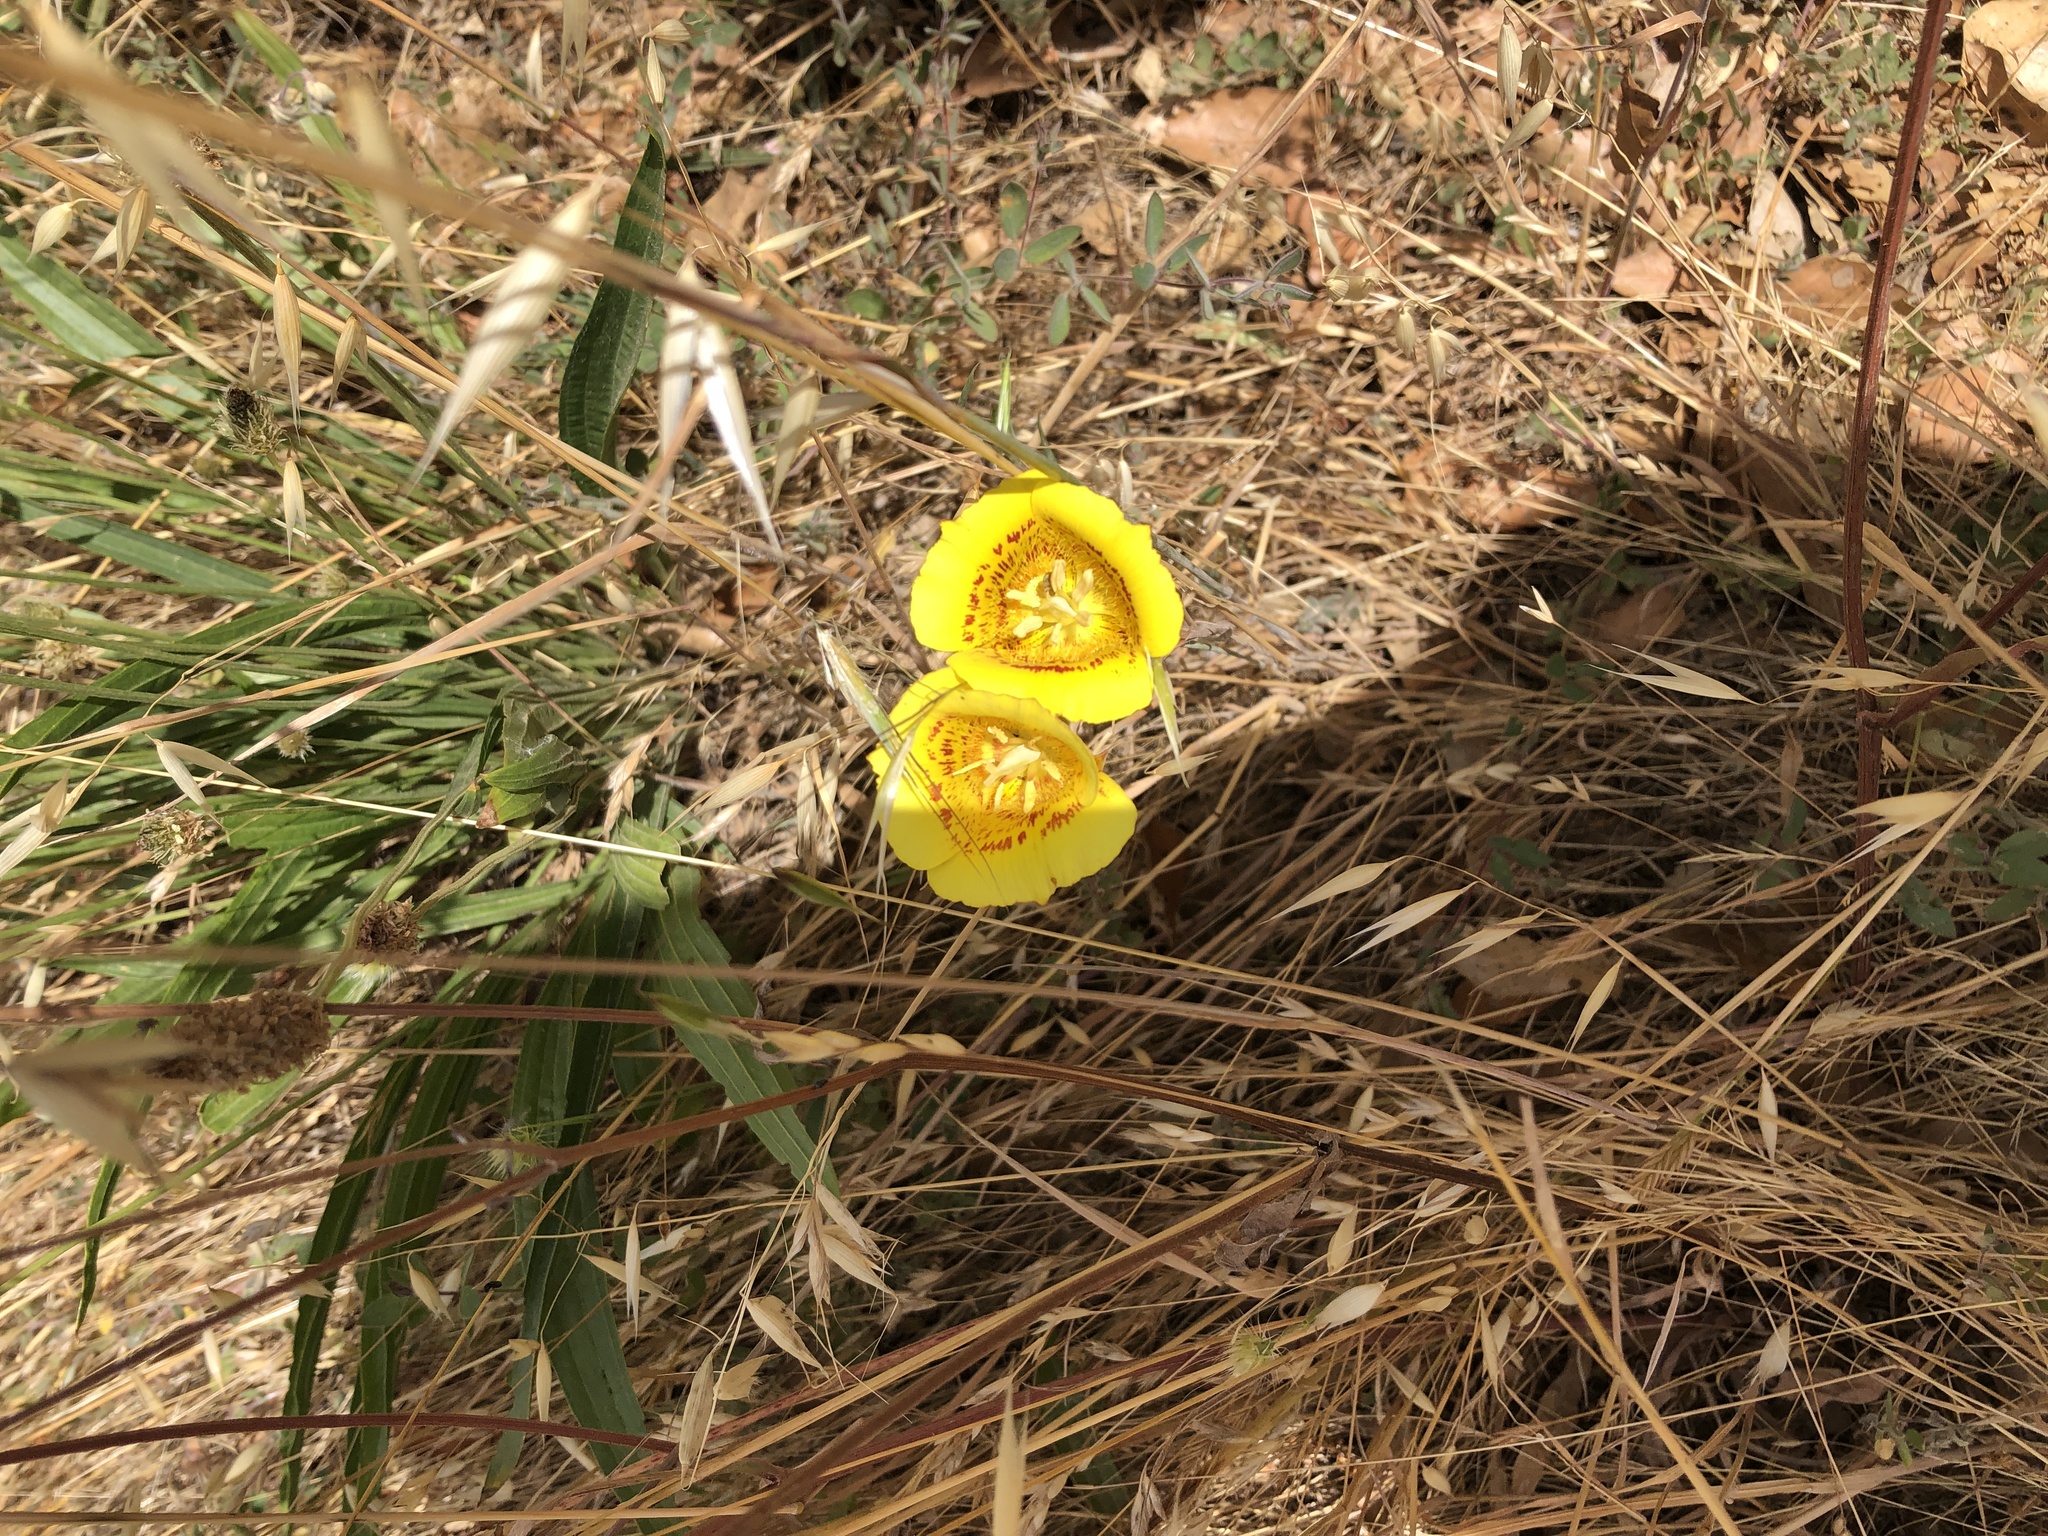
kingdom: Plantae
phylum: Tracheophyta
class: Liliopsida
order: Liliales
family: Liliaceae
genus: Calochortus
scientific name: Calochortus luteus
